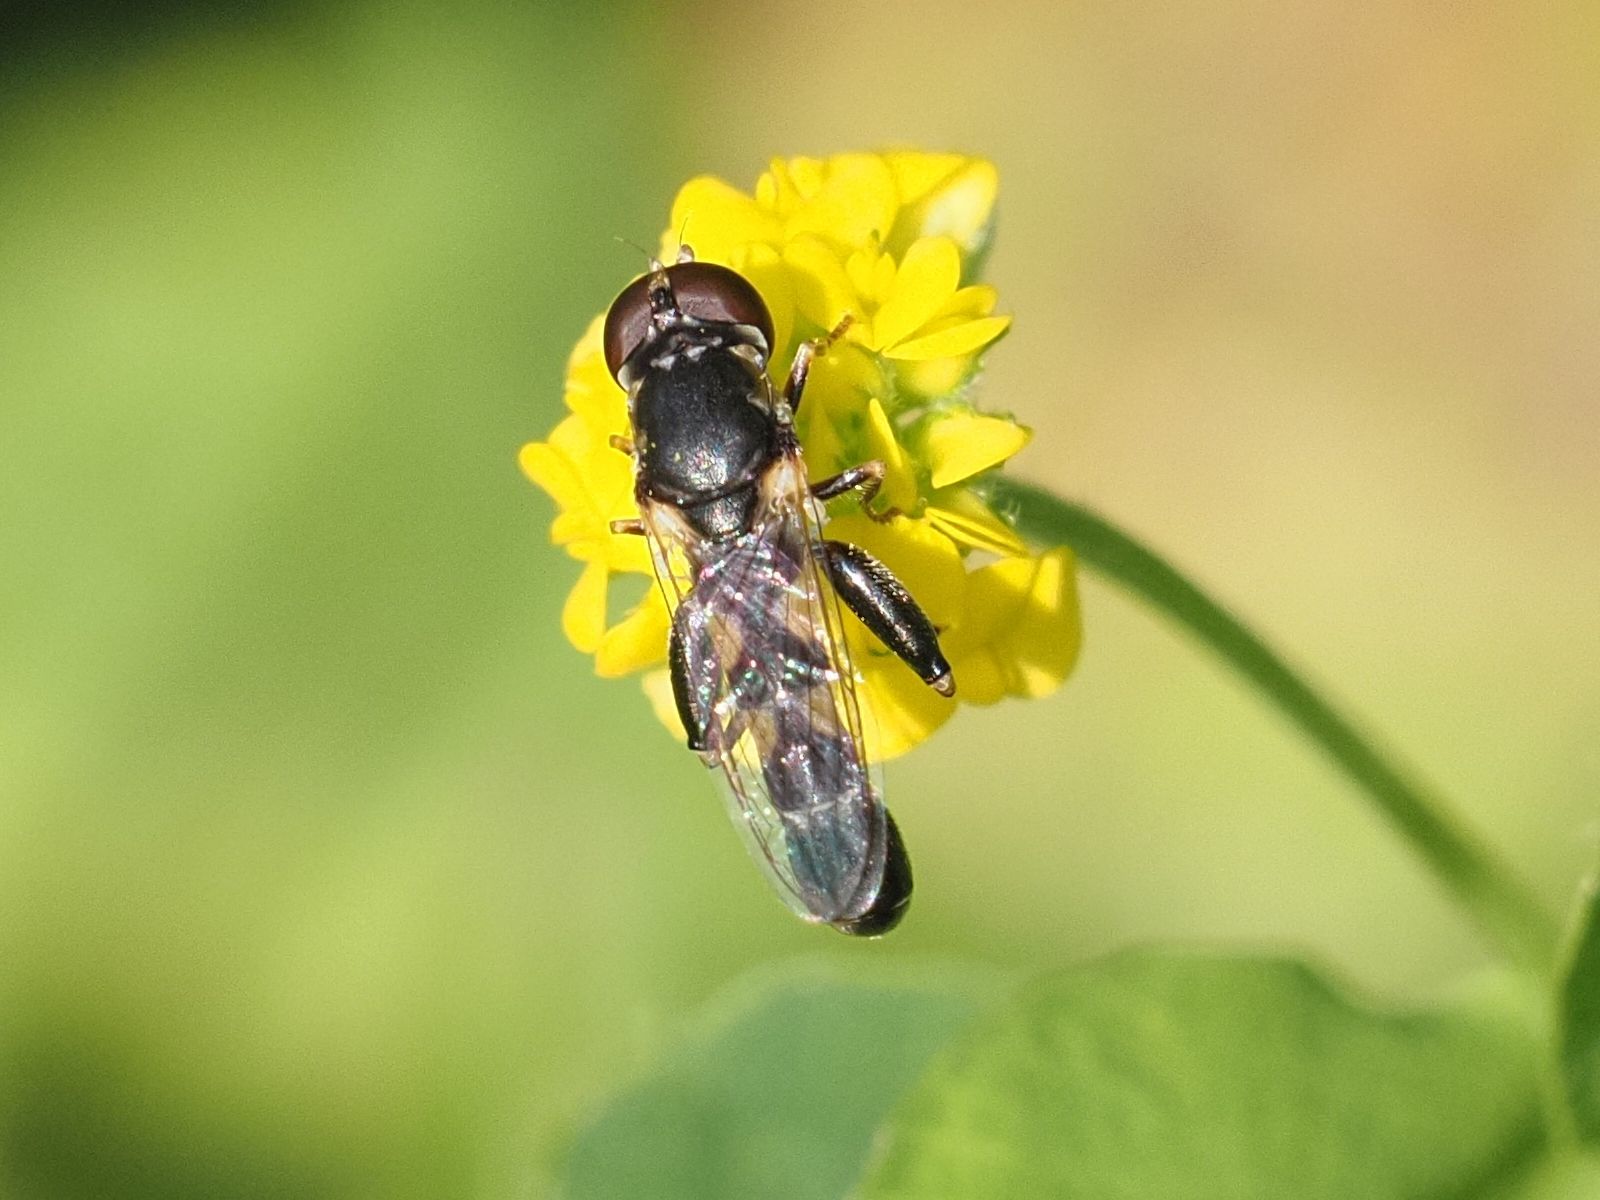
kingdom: Animalia
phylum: Arthropoda
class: Insecta
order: Diptera
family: Syrphidae
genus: Syritta
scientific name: Syritta pipiens
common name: Hover fly
